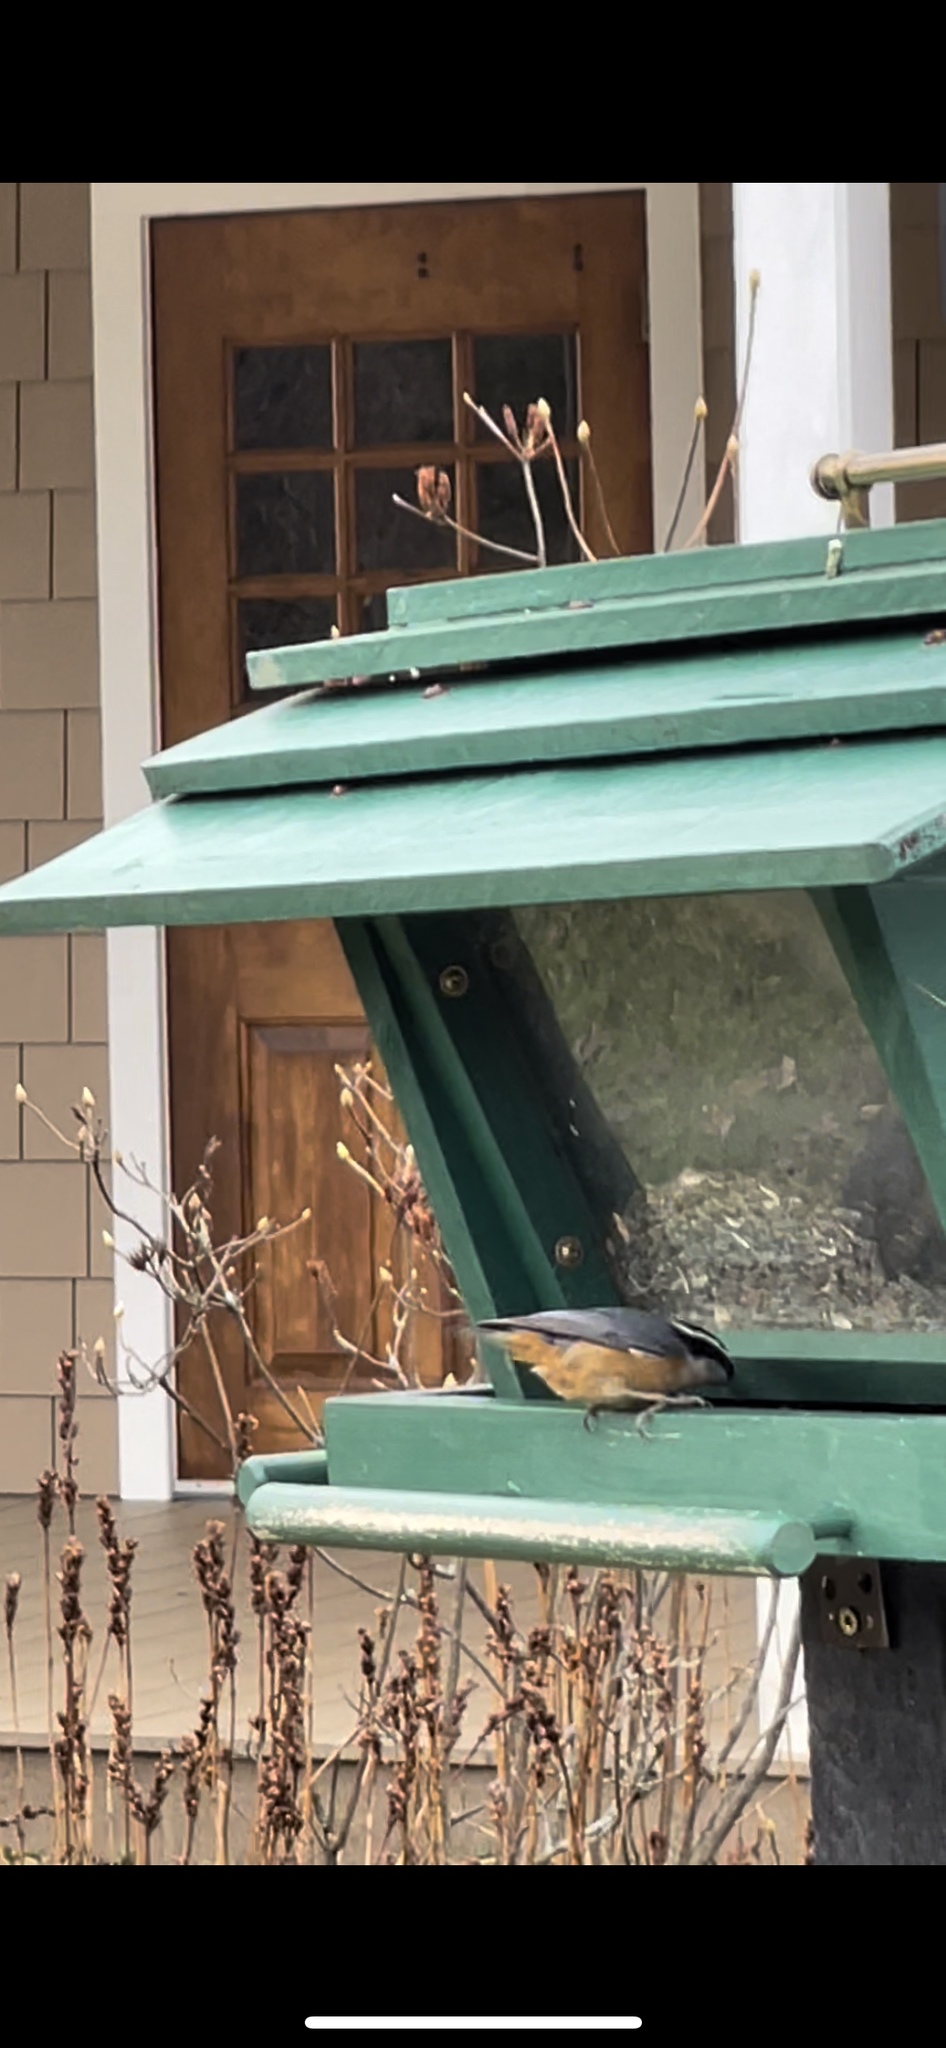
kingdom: Animalia
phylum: Chordata
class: Aves
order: Passeriformes
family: Sittidae
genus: Sitta
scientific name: Sitta canadensis
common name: Red-breasted nuthatch
